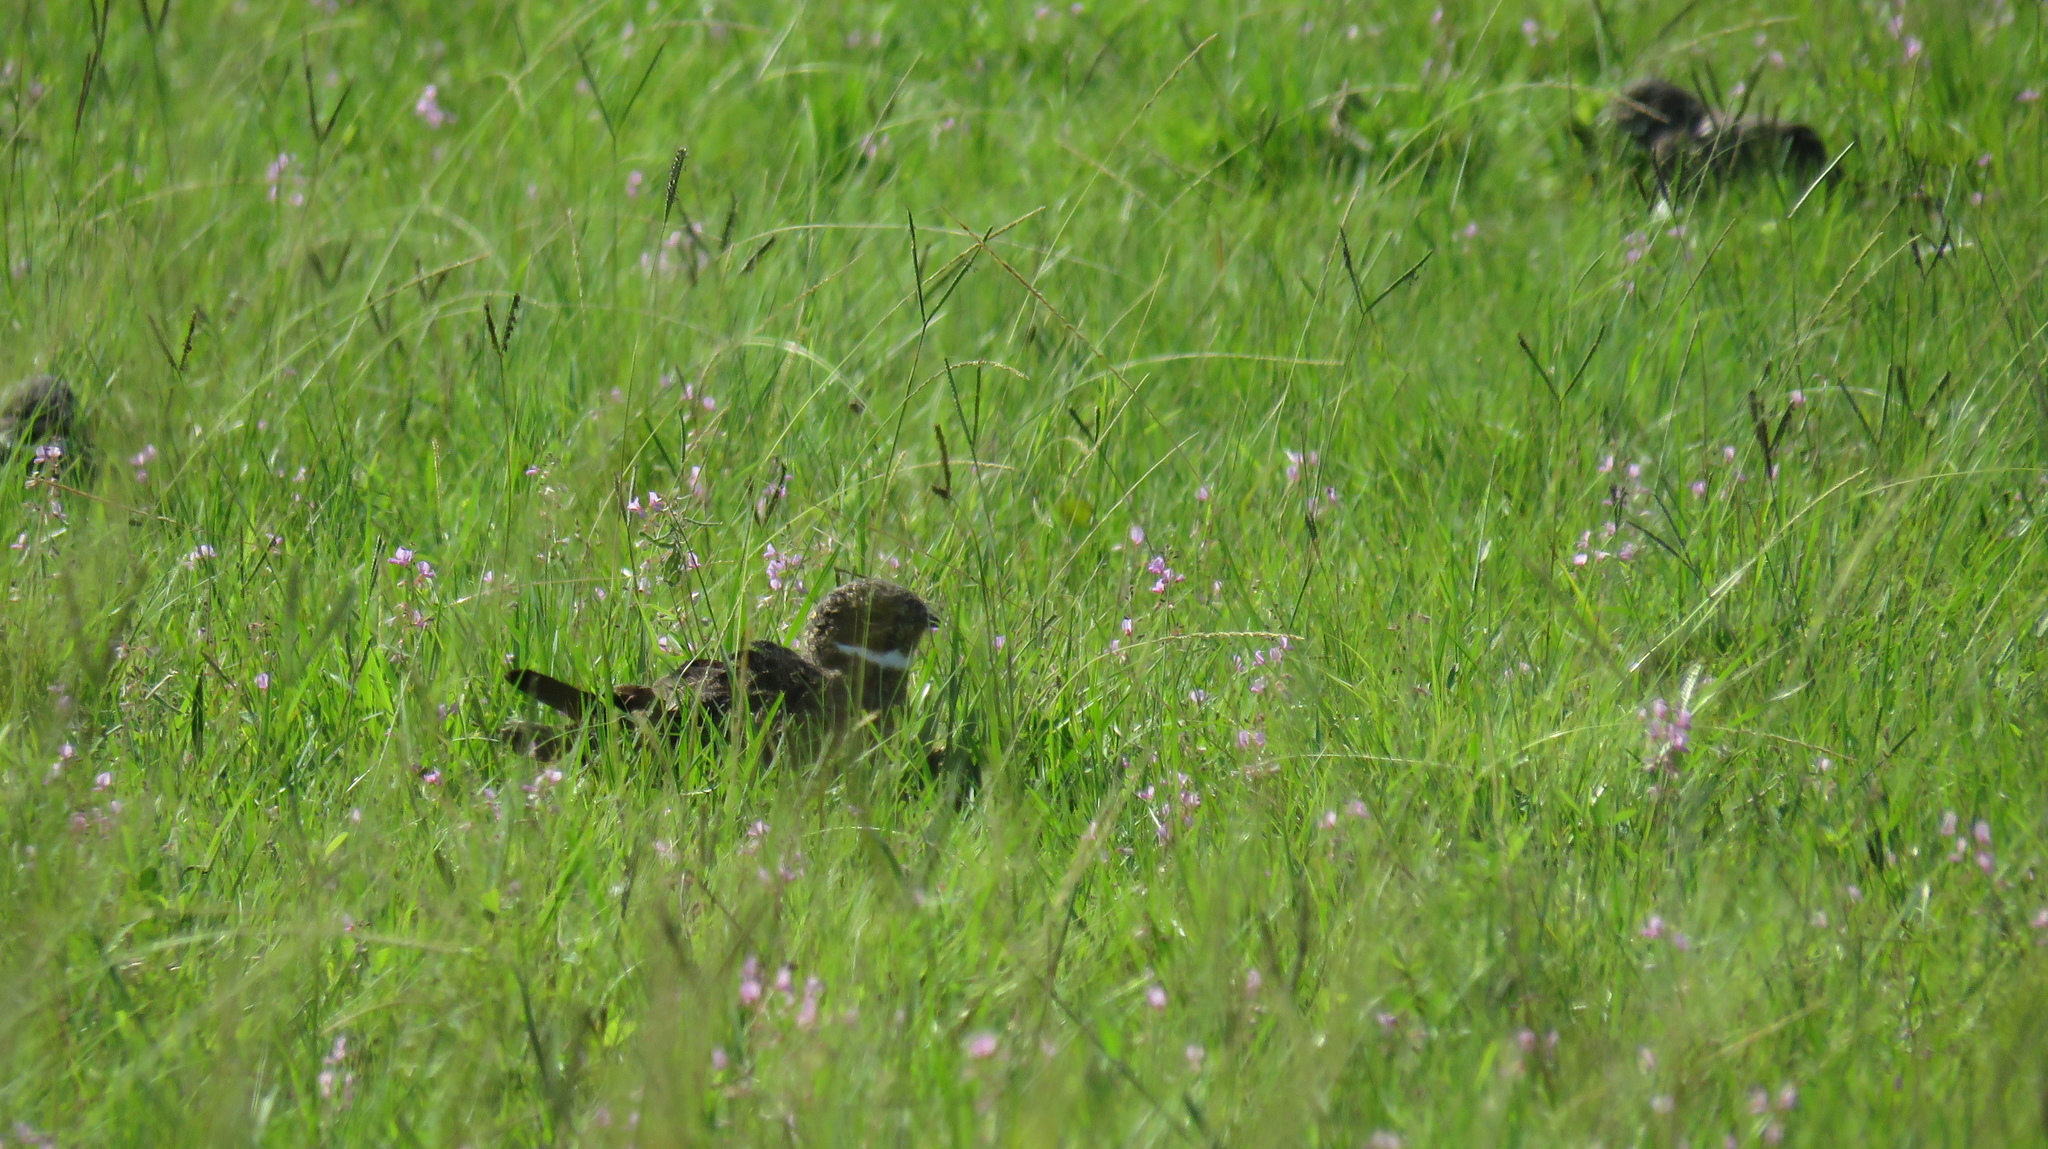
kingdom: Animalia
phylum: Chordata
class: Aves
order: Caprimulgiformes
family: Caprimulgidae
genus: Chordeiles
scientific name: Chordeiles nacunda
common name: Nacunda nighthawk
